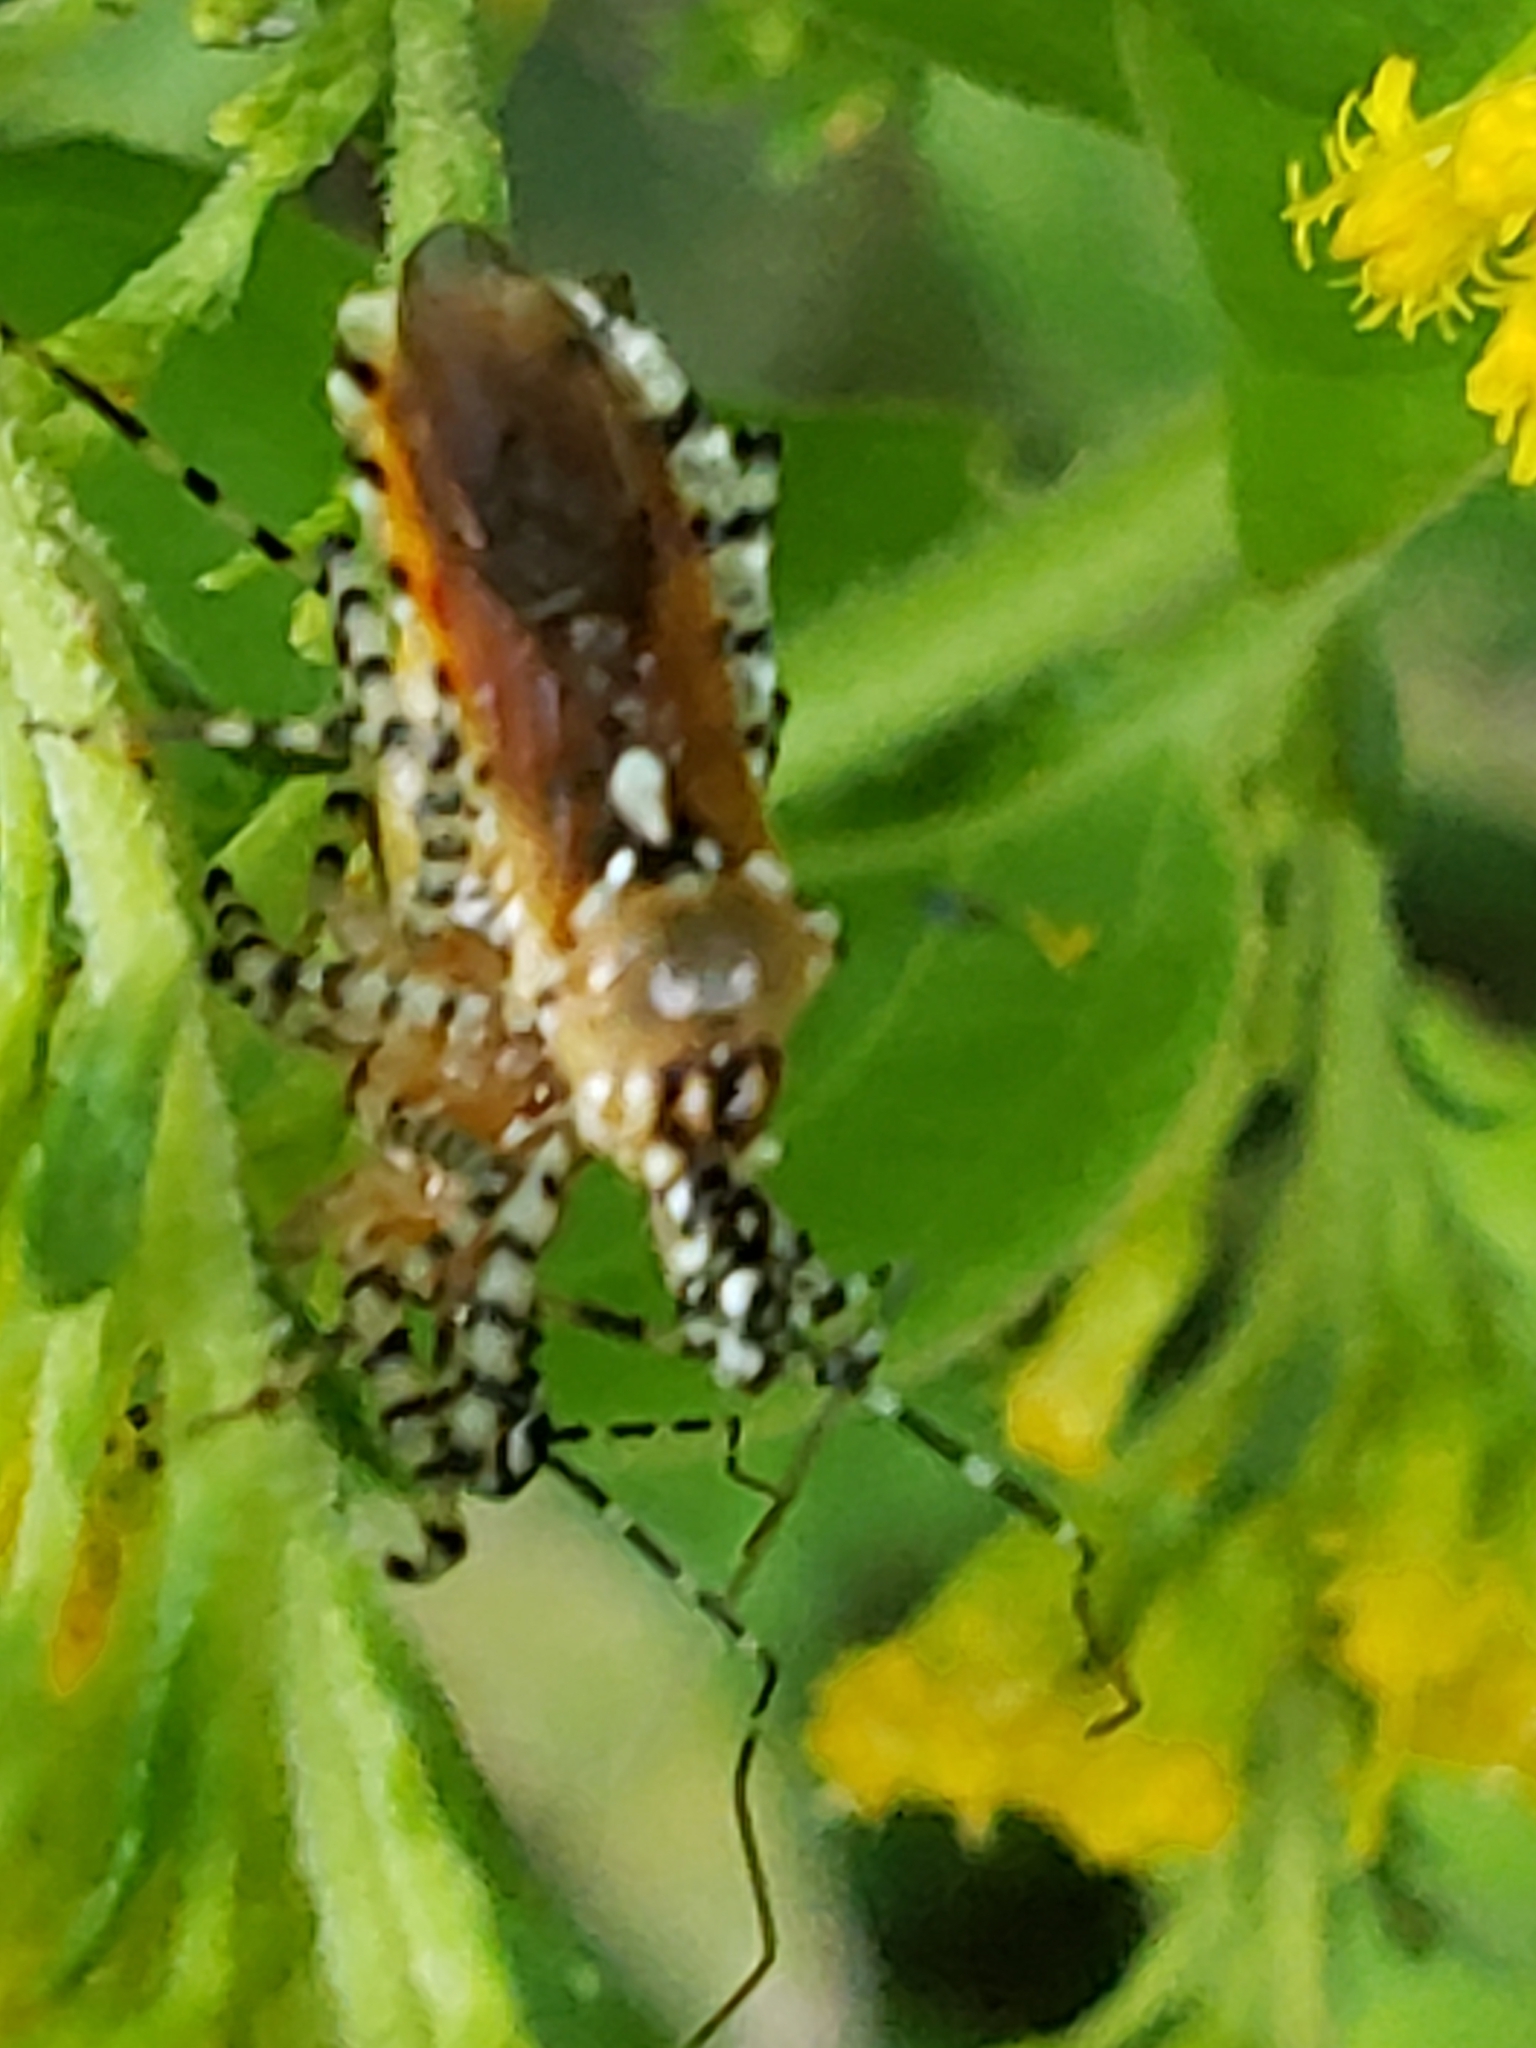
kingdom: Animalia
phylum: Arthropoda
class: Insecta
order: Hemiptera
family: Reduviidae
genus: Pselliopus
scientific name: Pselliopus cinctus
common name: Ringed assassin bug
